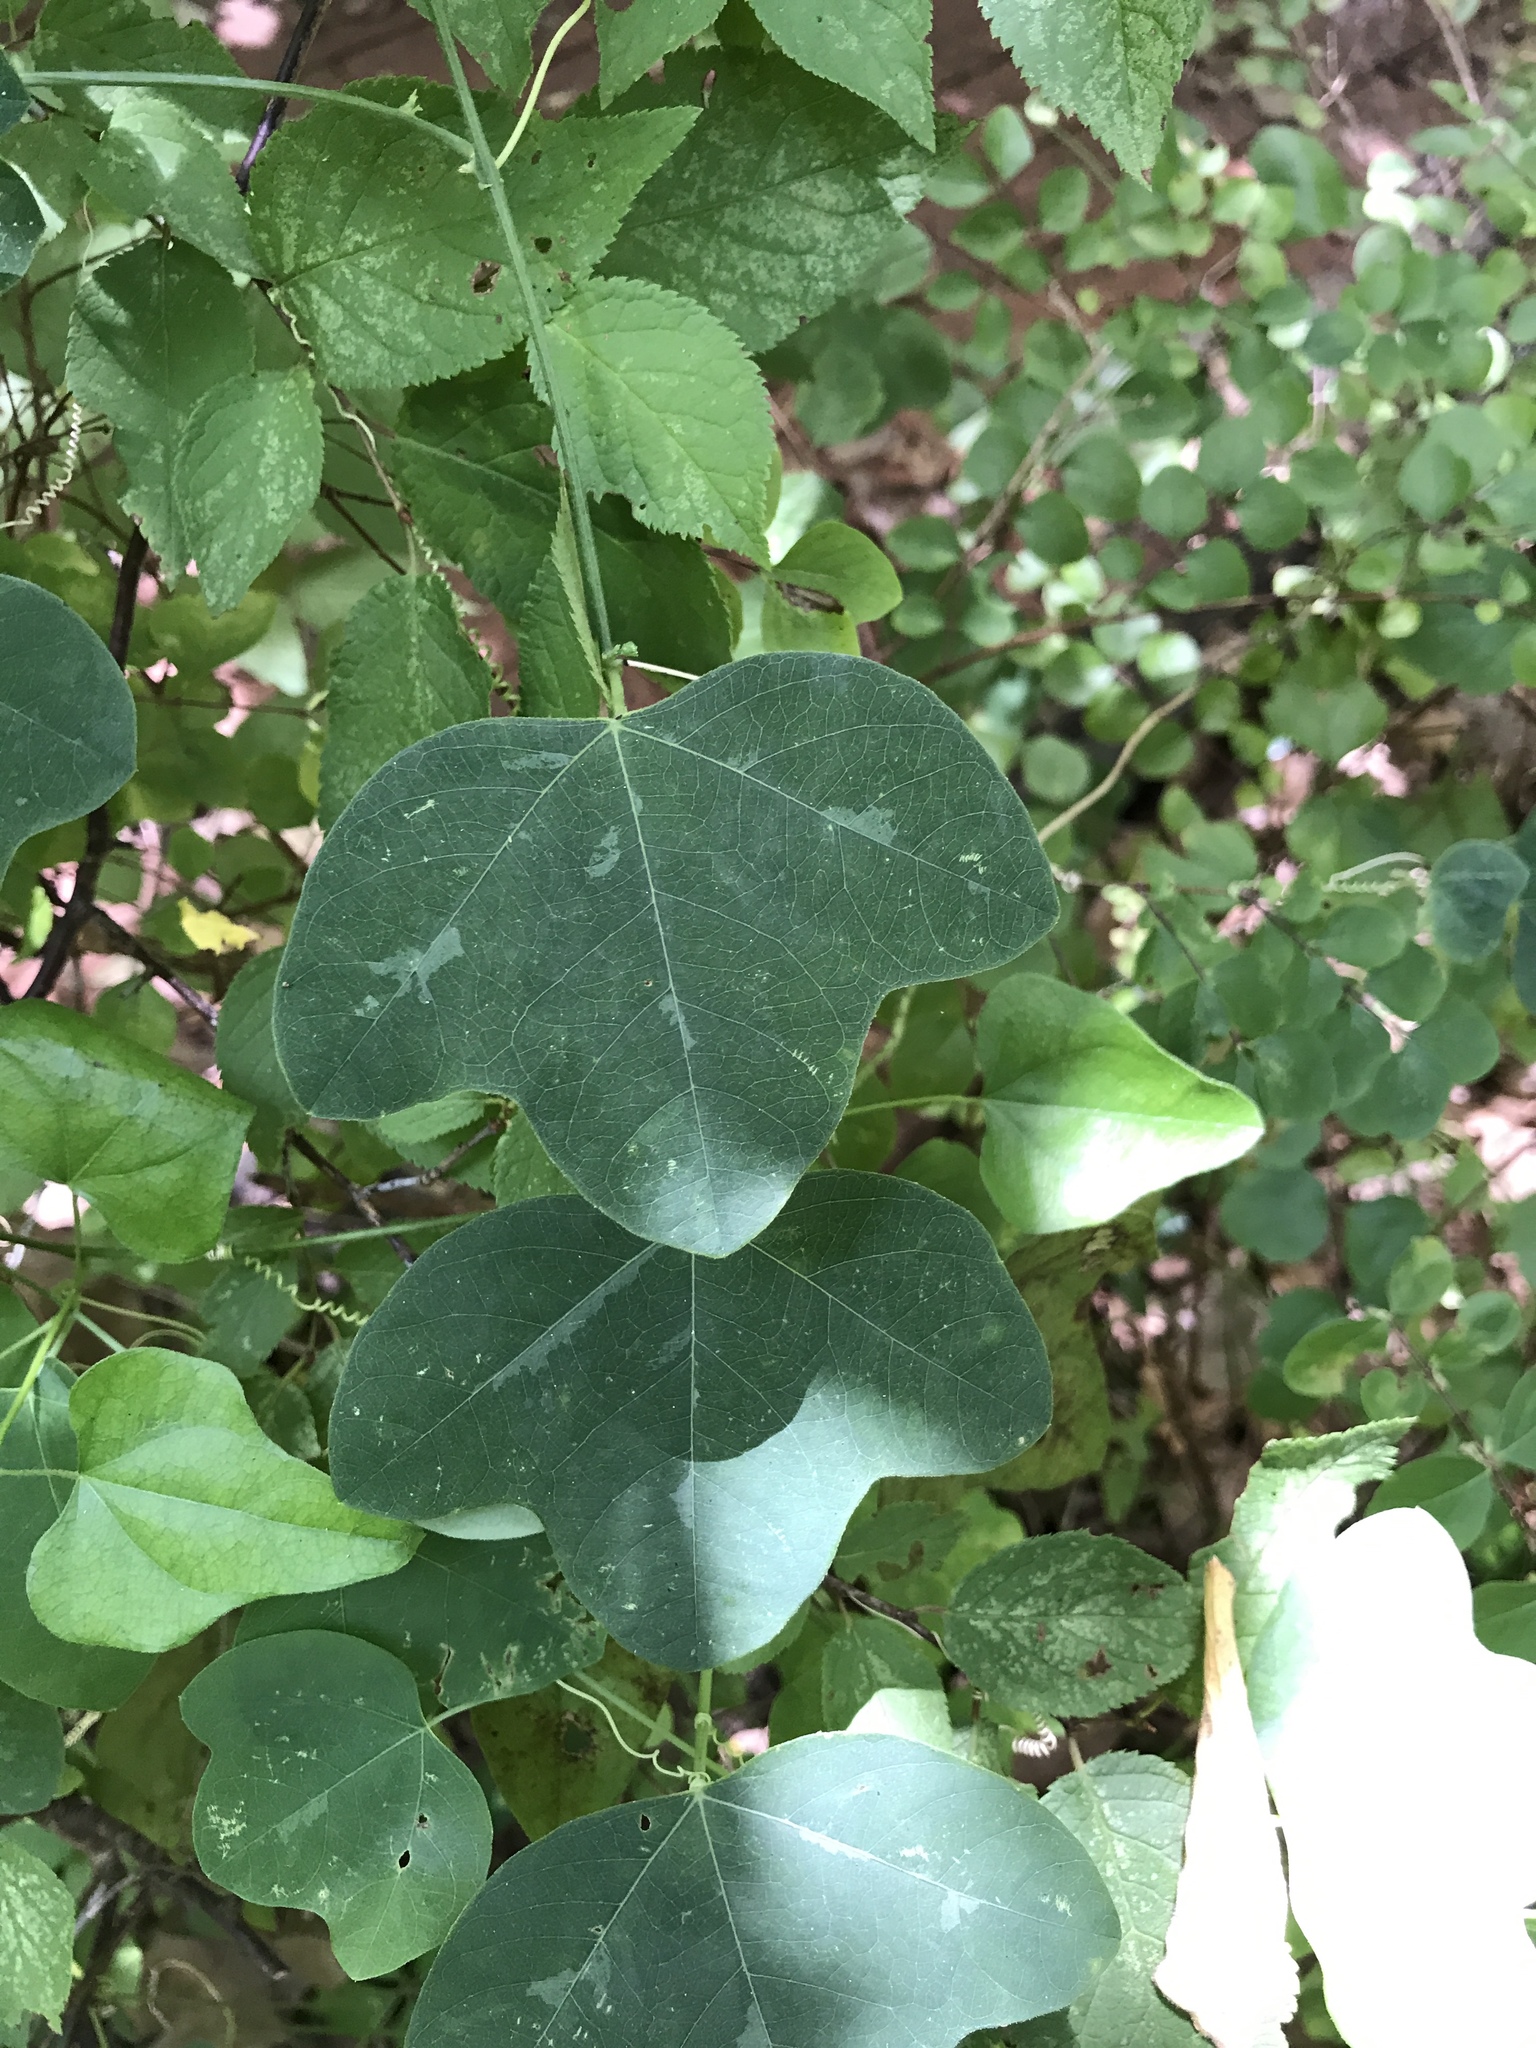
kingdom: Plantae
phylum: Tracheophyta
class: Magnoliopsida
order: Malpighiales
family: Passifloraceae
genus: Passiflora
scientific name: Passiflora lutea
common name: Yellow passionflower
